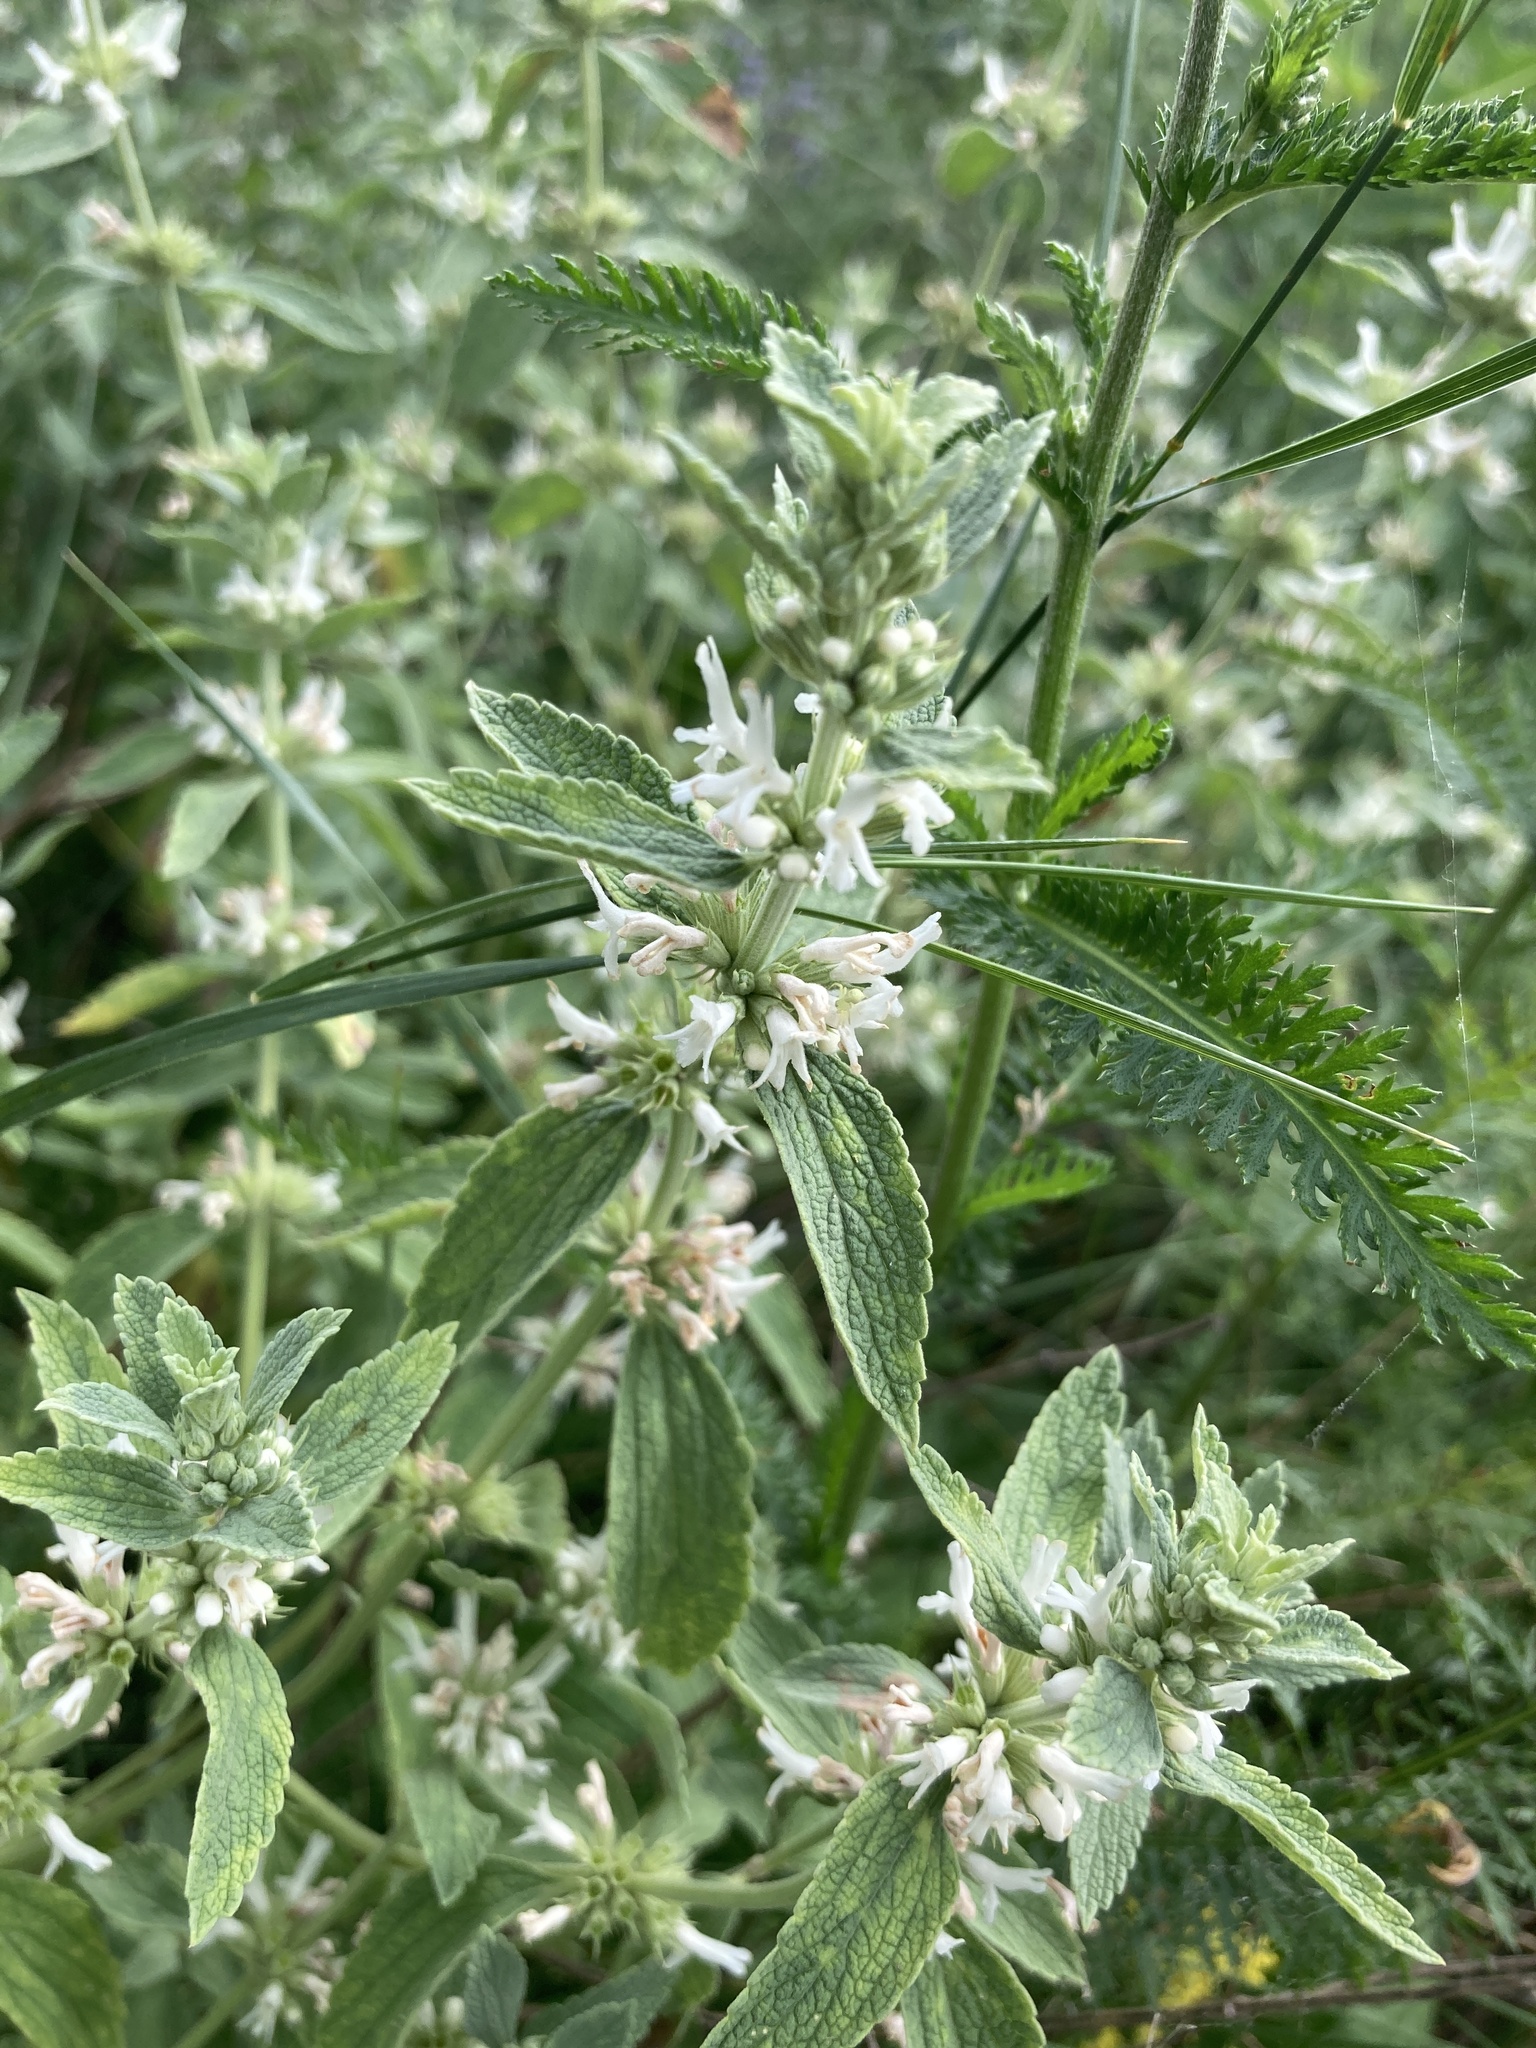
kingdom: Plantae
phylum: Tracheophyta
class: Magnoliopsida
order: Lamiales
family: Lamiaceae
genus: Marrubium
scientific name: Marrubium peregrinum
